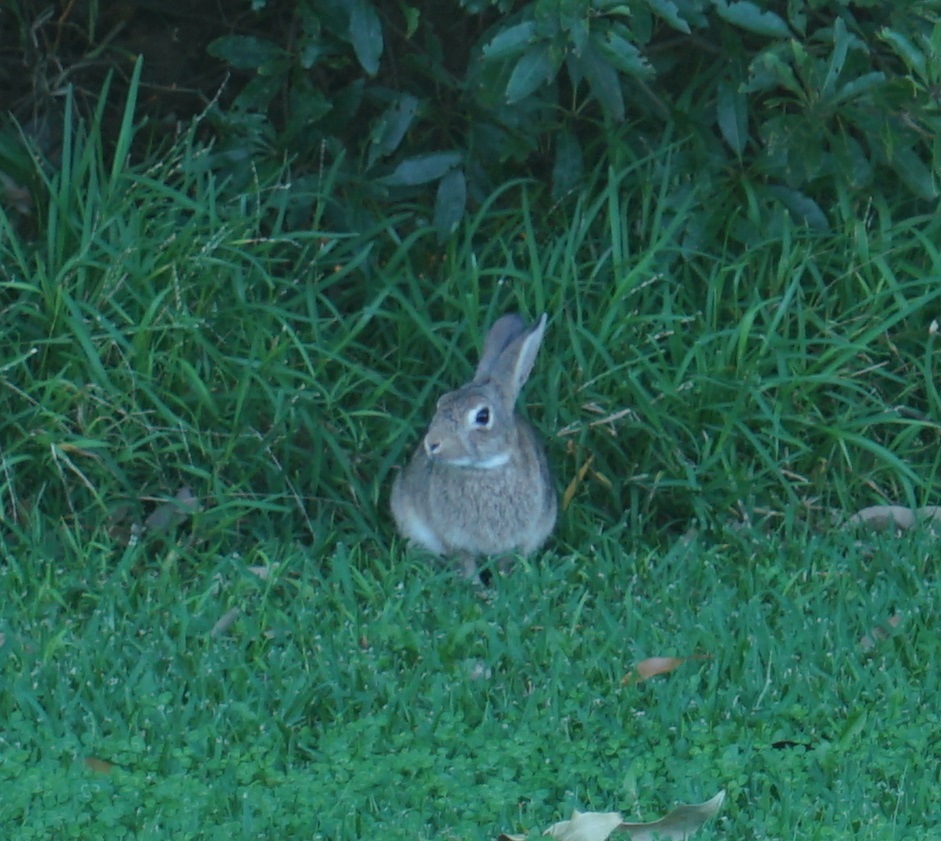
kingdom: Animalia
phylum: Chordata
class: Mammalia
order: Lagomorpha
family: Leporidae
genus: Oryctolagus
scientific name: Oryctolagus cuniculus
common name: European rabbit
